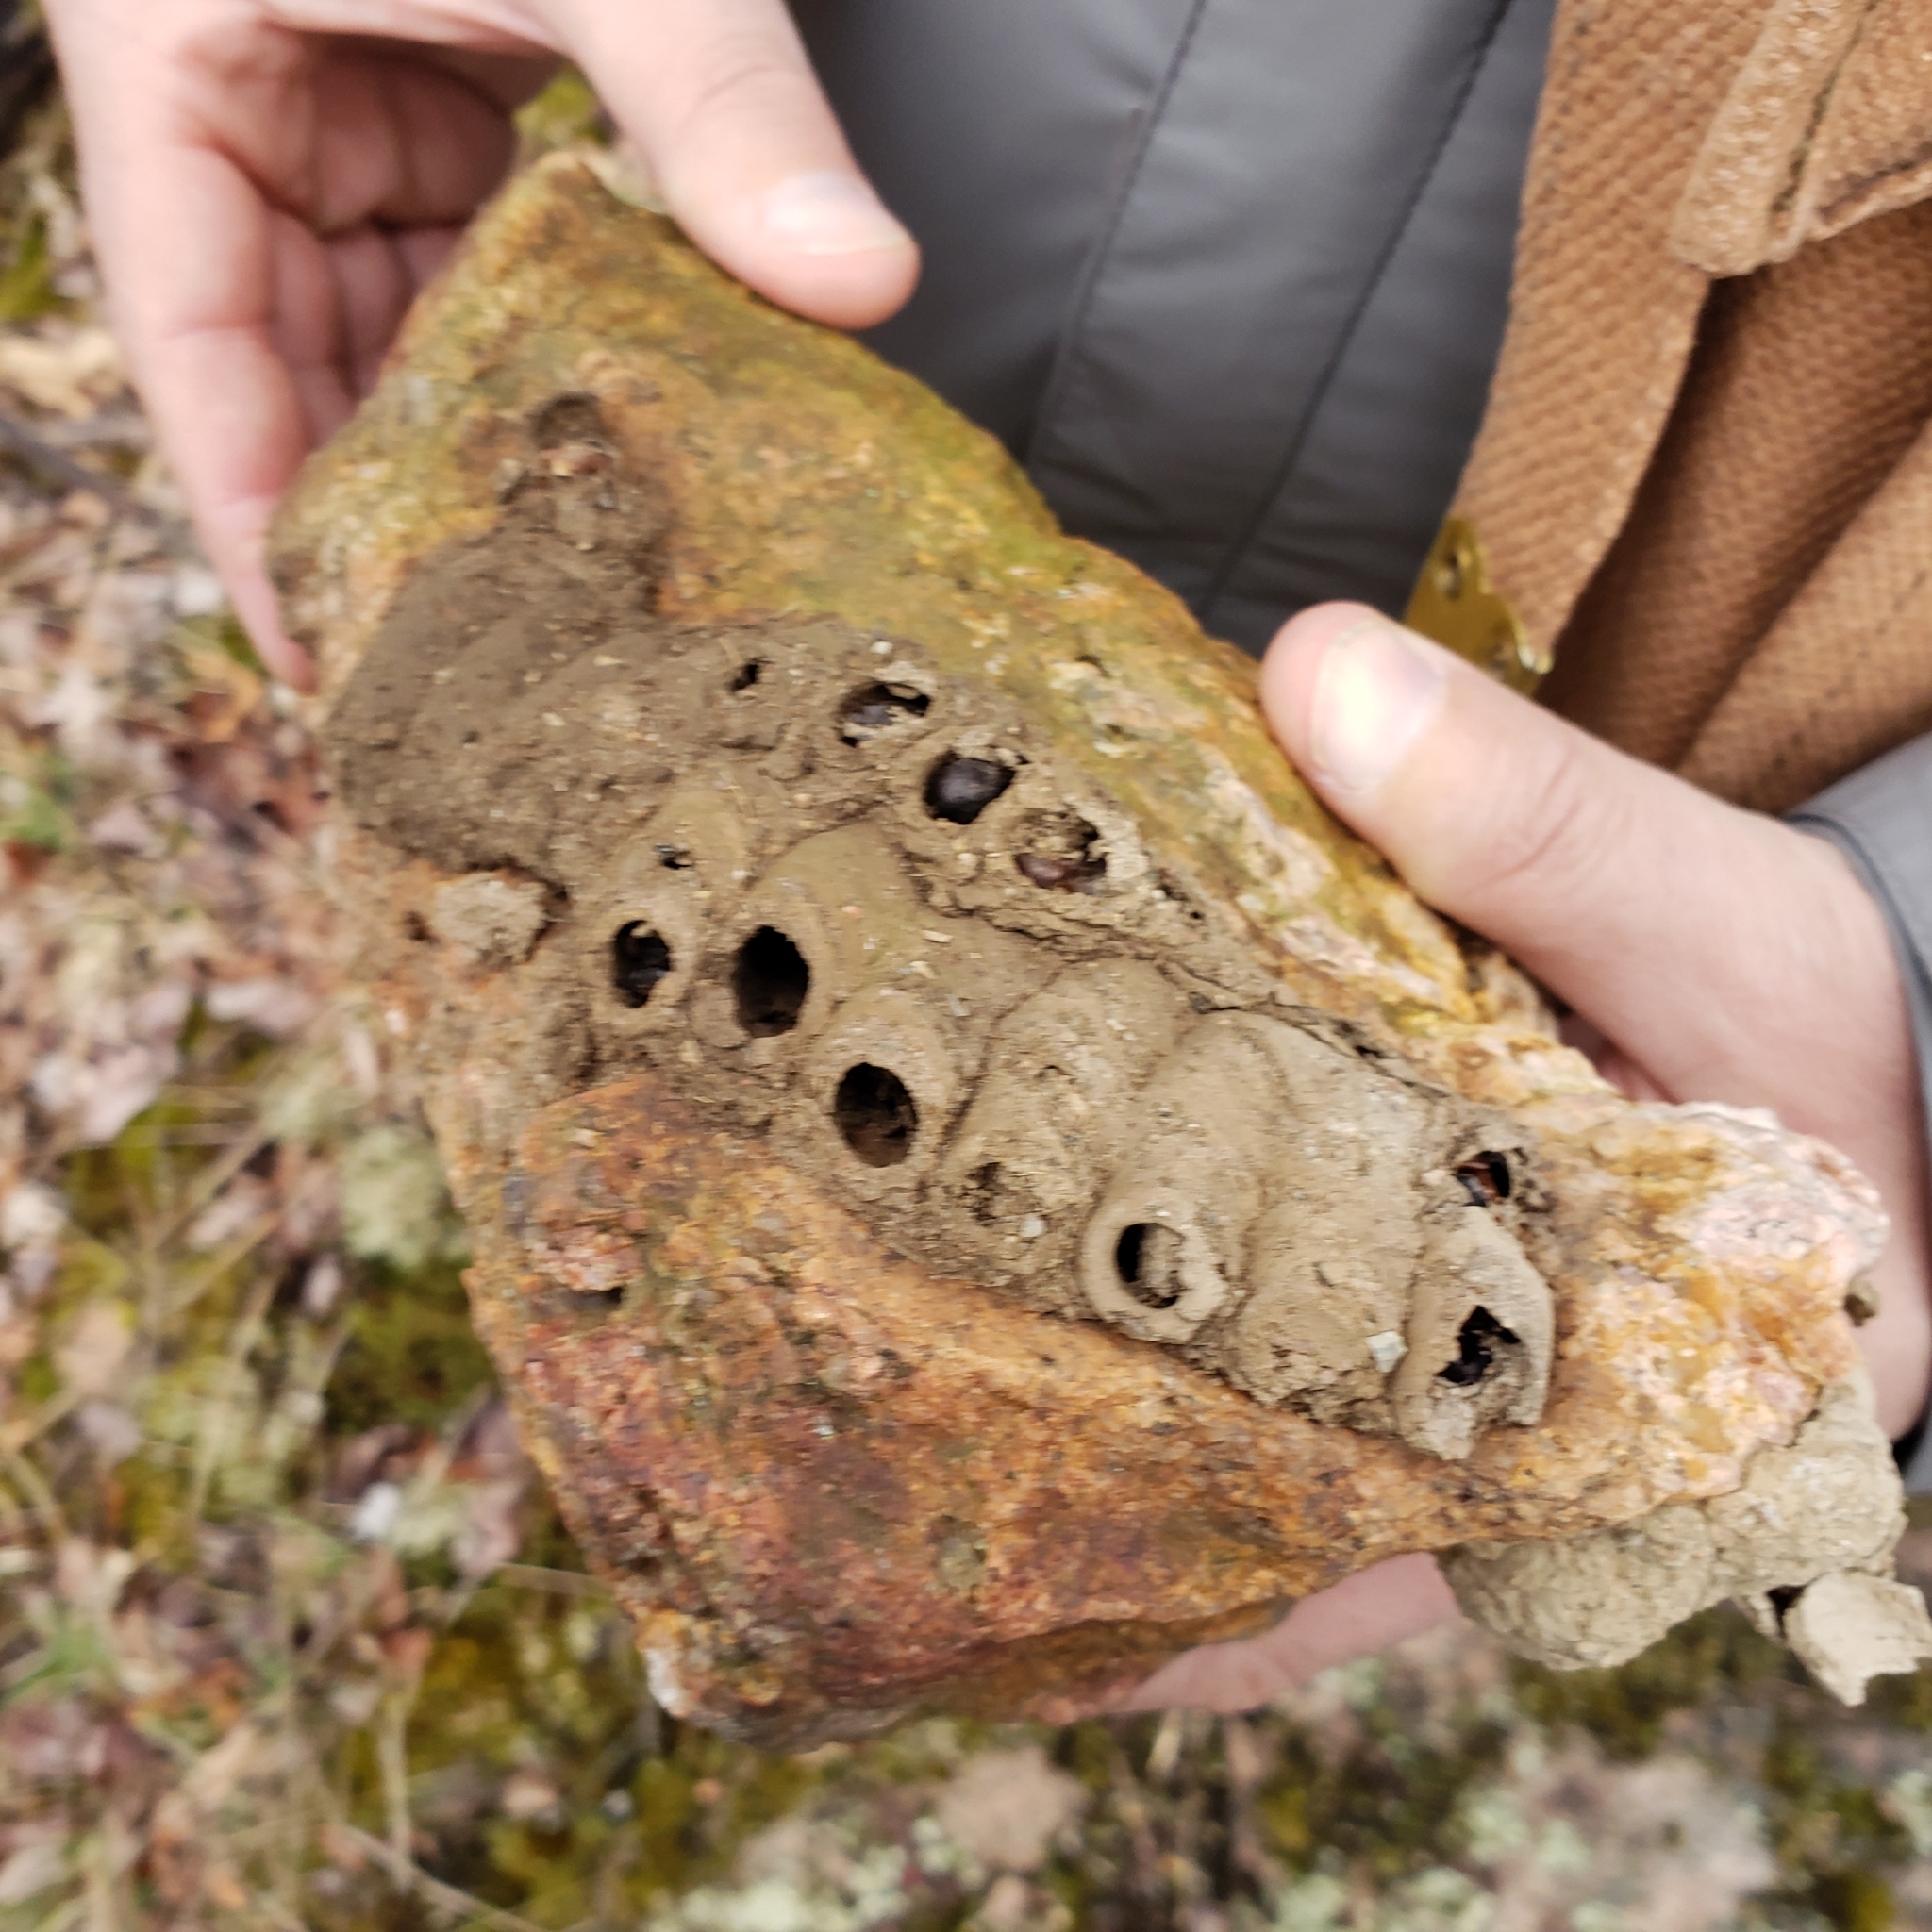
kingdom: Animalia
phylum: Arthropoda
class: Insecta
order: Hymenoptera
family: Sphecidae
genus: Sceliphron
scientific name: Sceliphron caementarium
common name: Mud dauber
